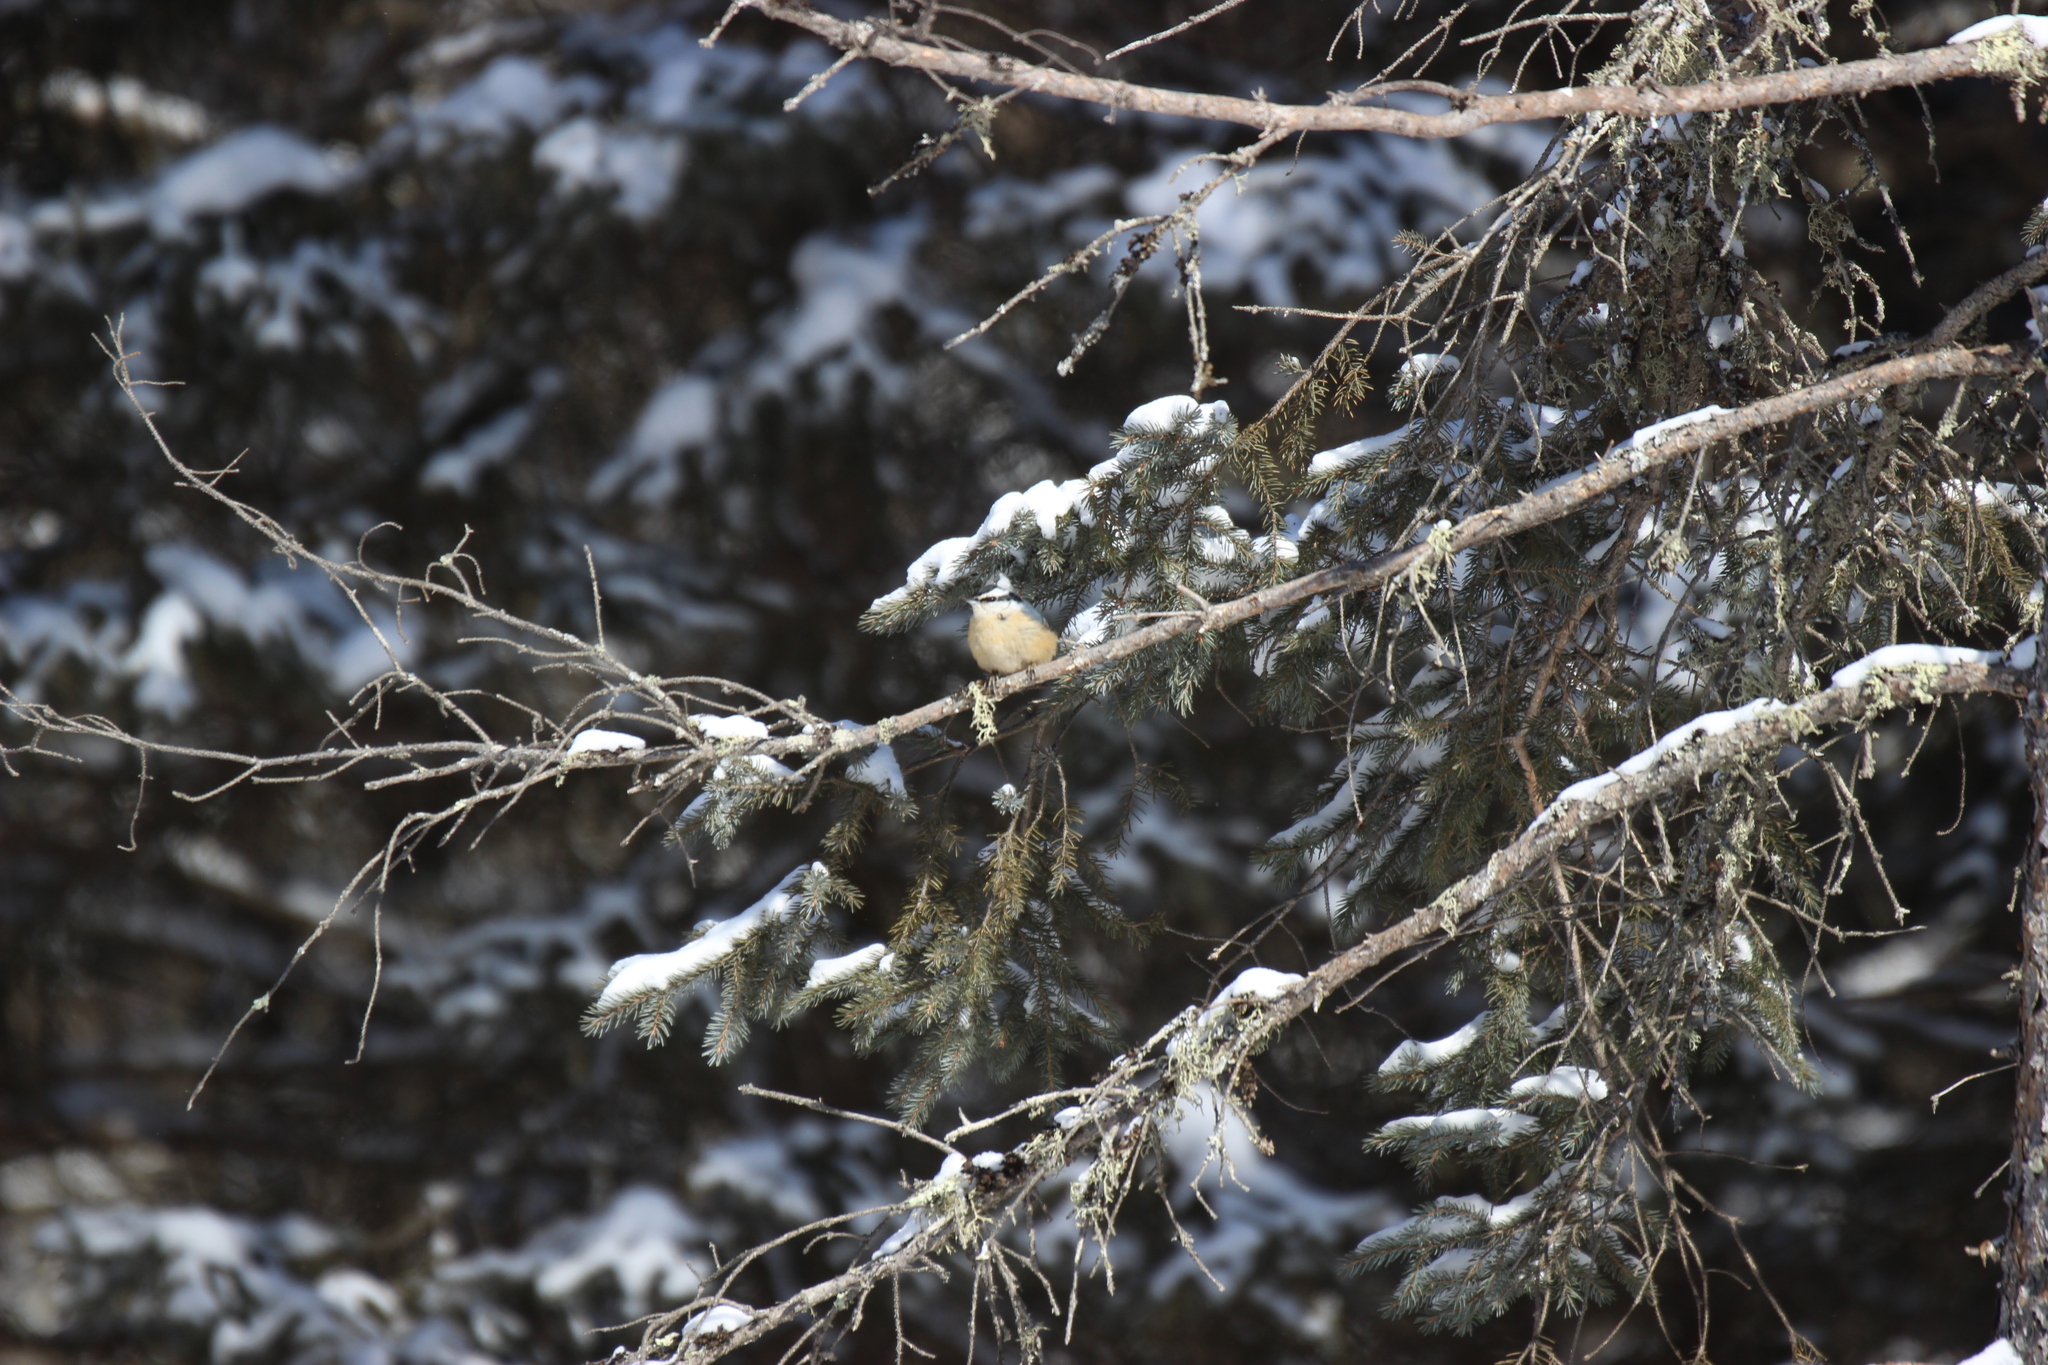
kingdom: Animalia
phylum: Chordata
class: Aves
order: Passeriformes
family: Sittidae
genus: Sitta
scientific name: Sitta canadensis
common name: Red-breasted nuthatch
